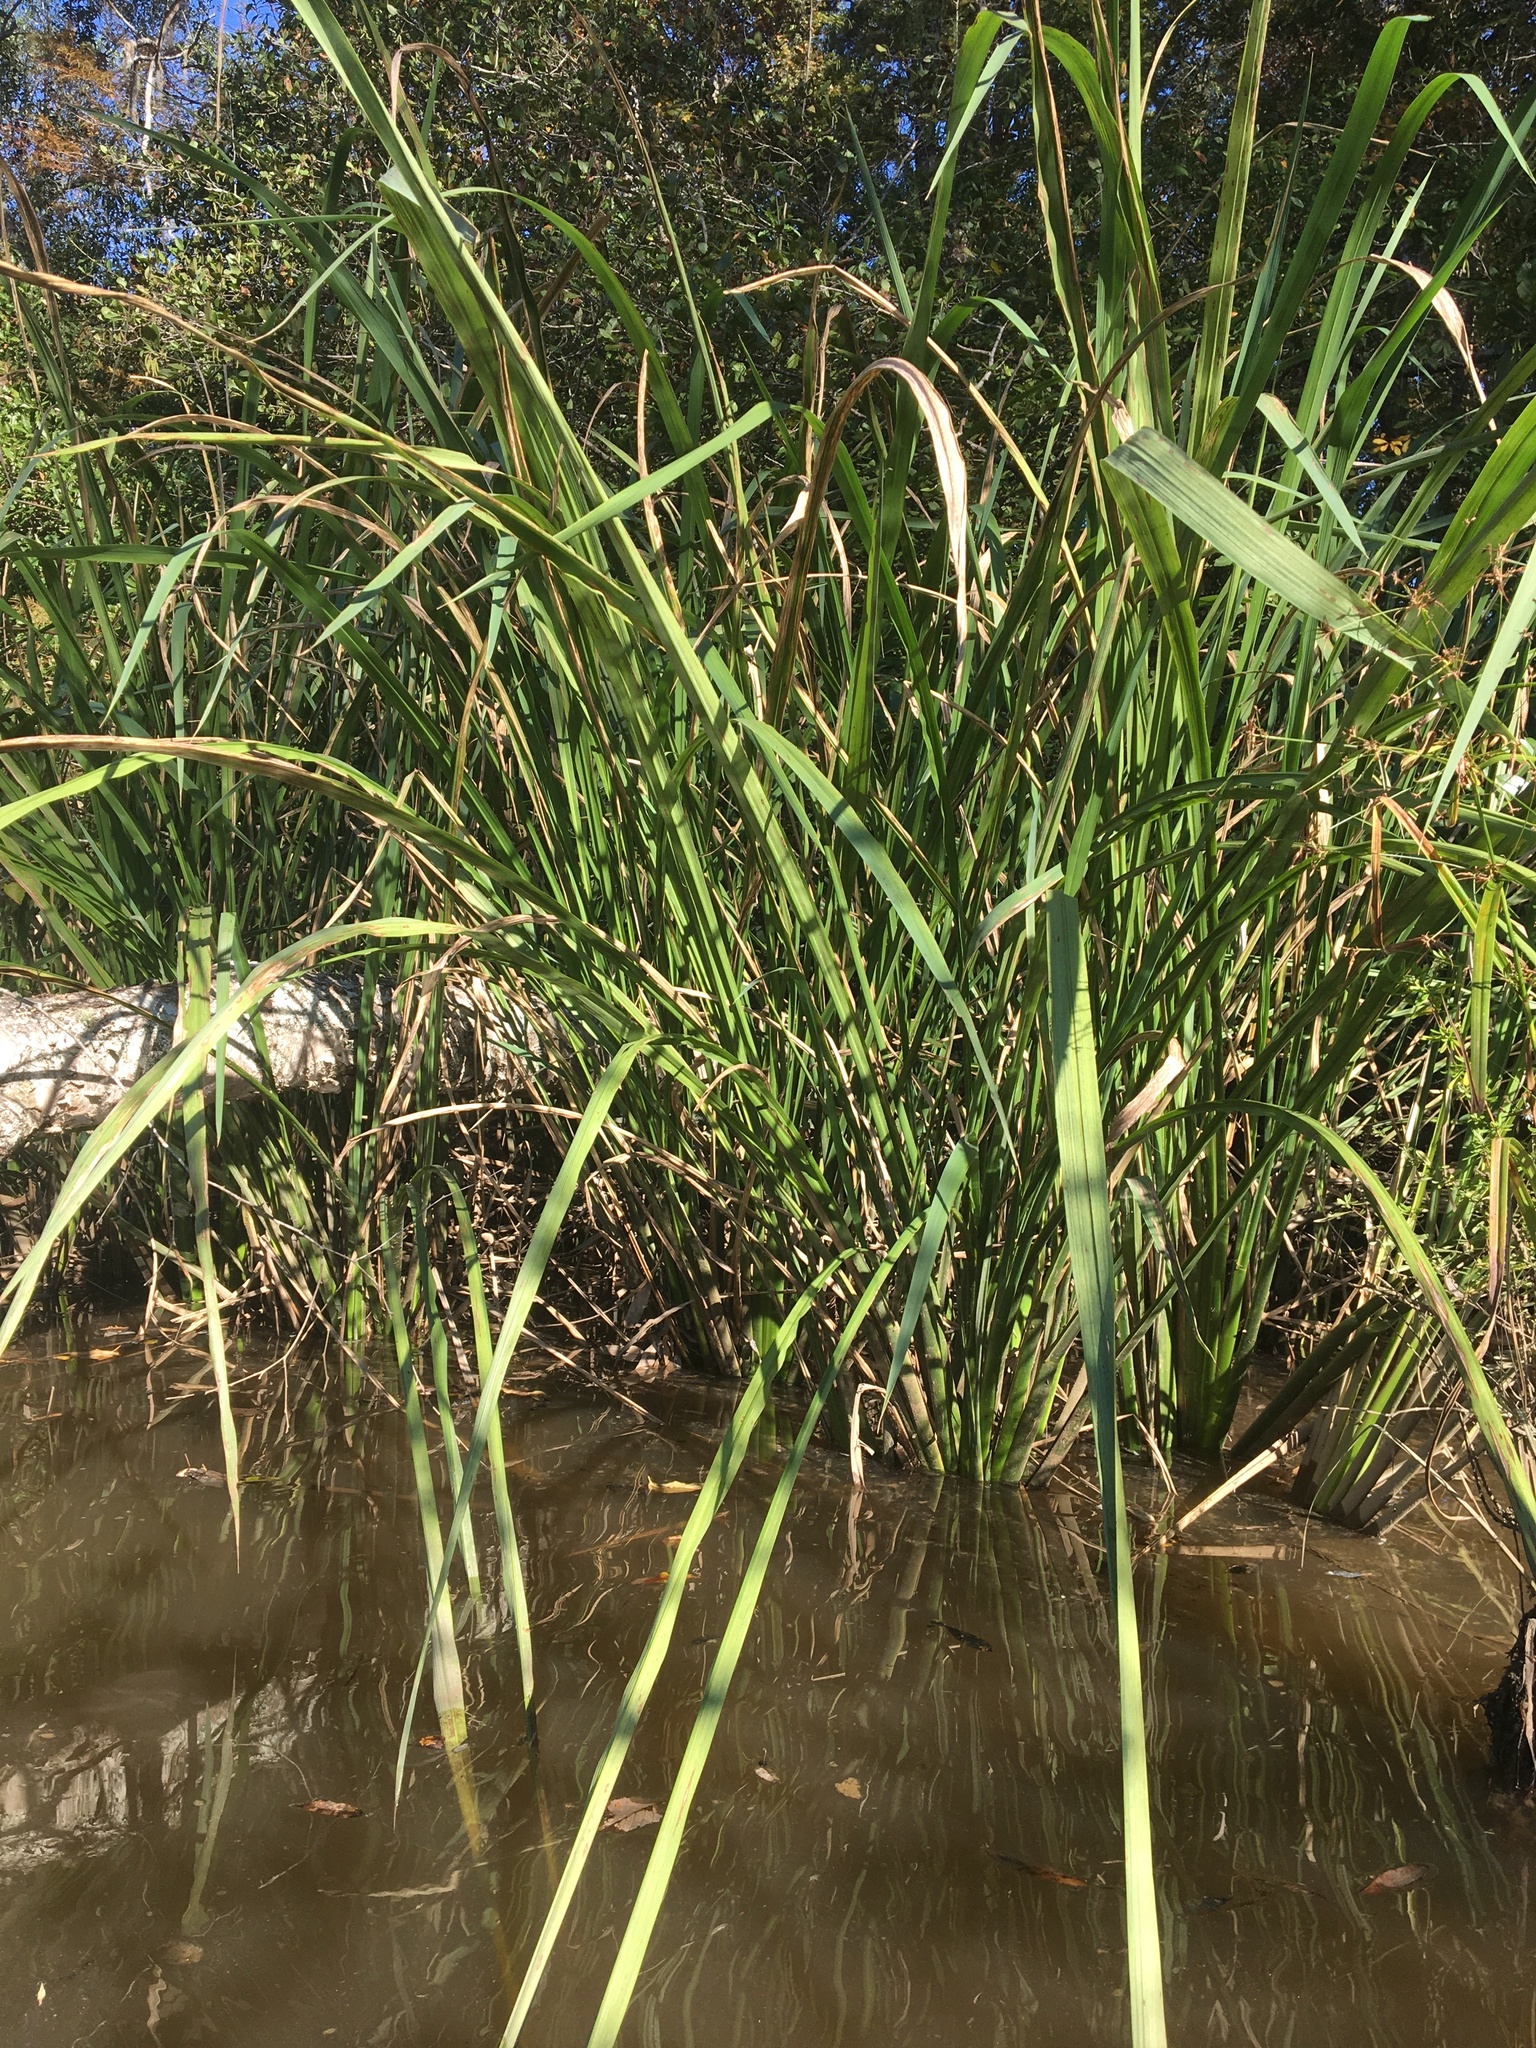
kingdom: Plantae
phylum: Tracheophyta
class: Liliopsida
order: Poales
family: Poaceae
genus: Zizaniopsis
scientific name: Zizaniopsis miliacea
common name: Giant-cutgrass
